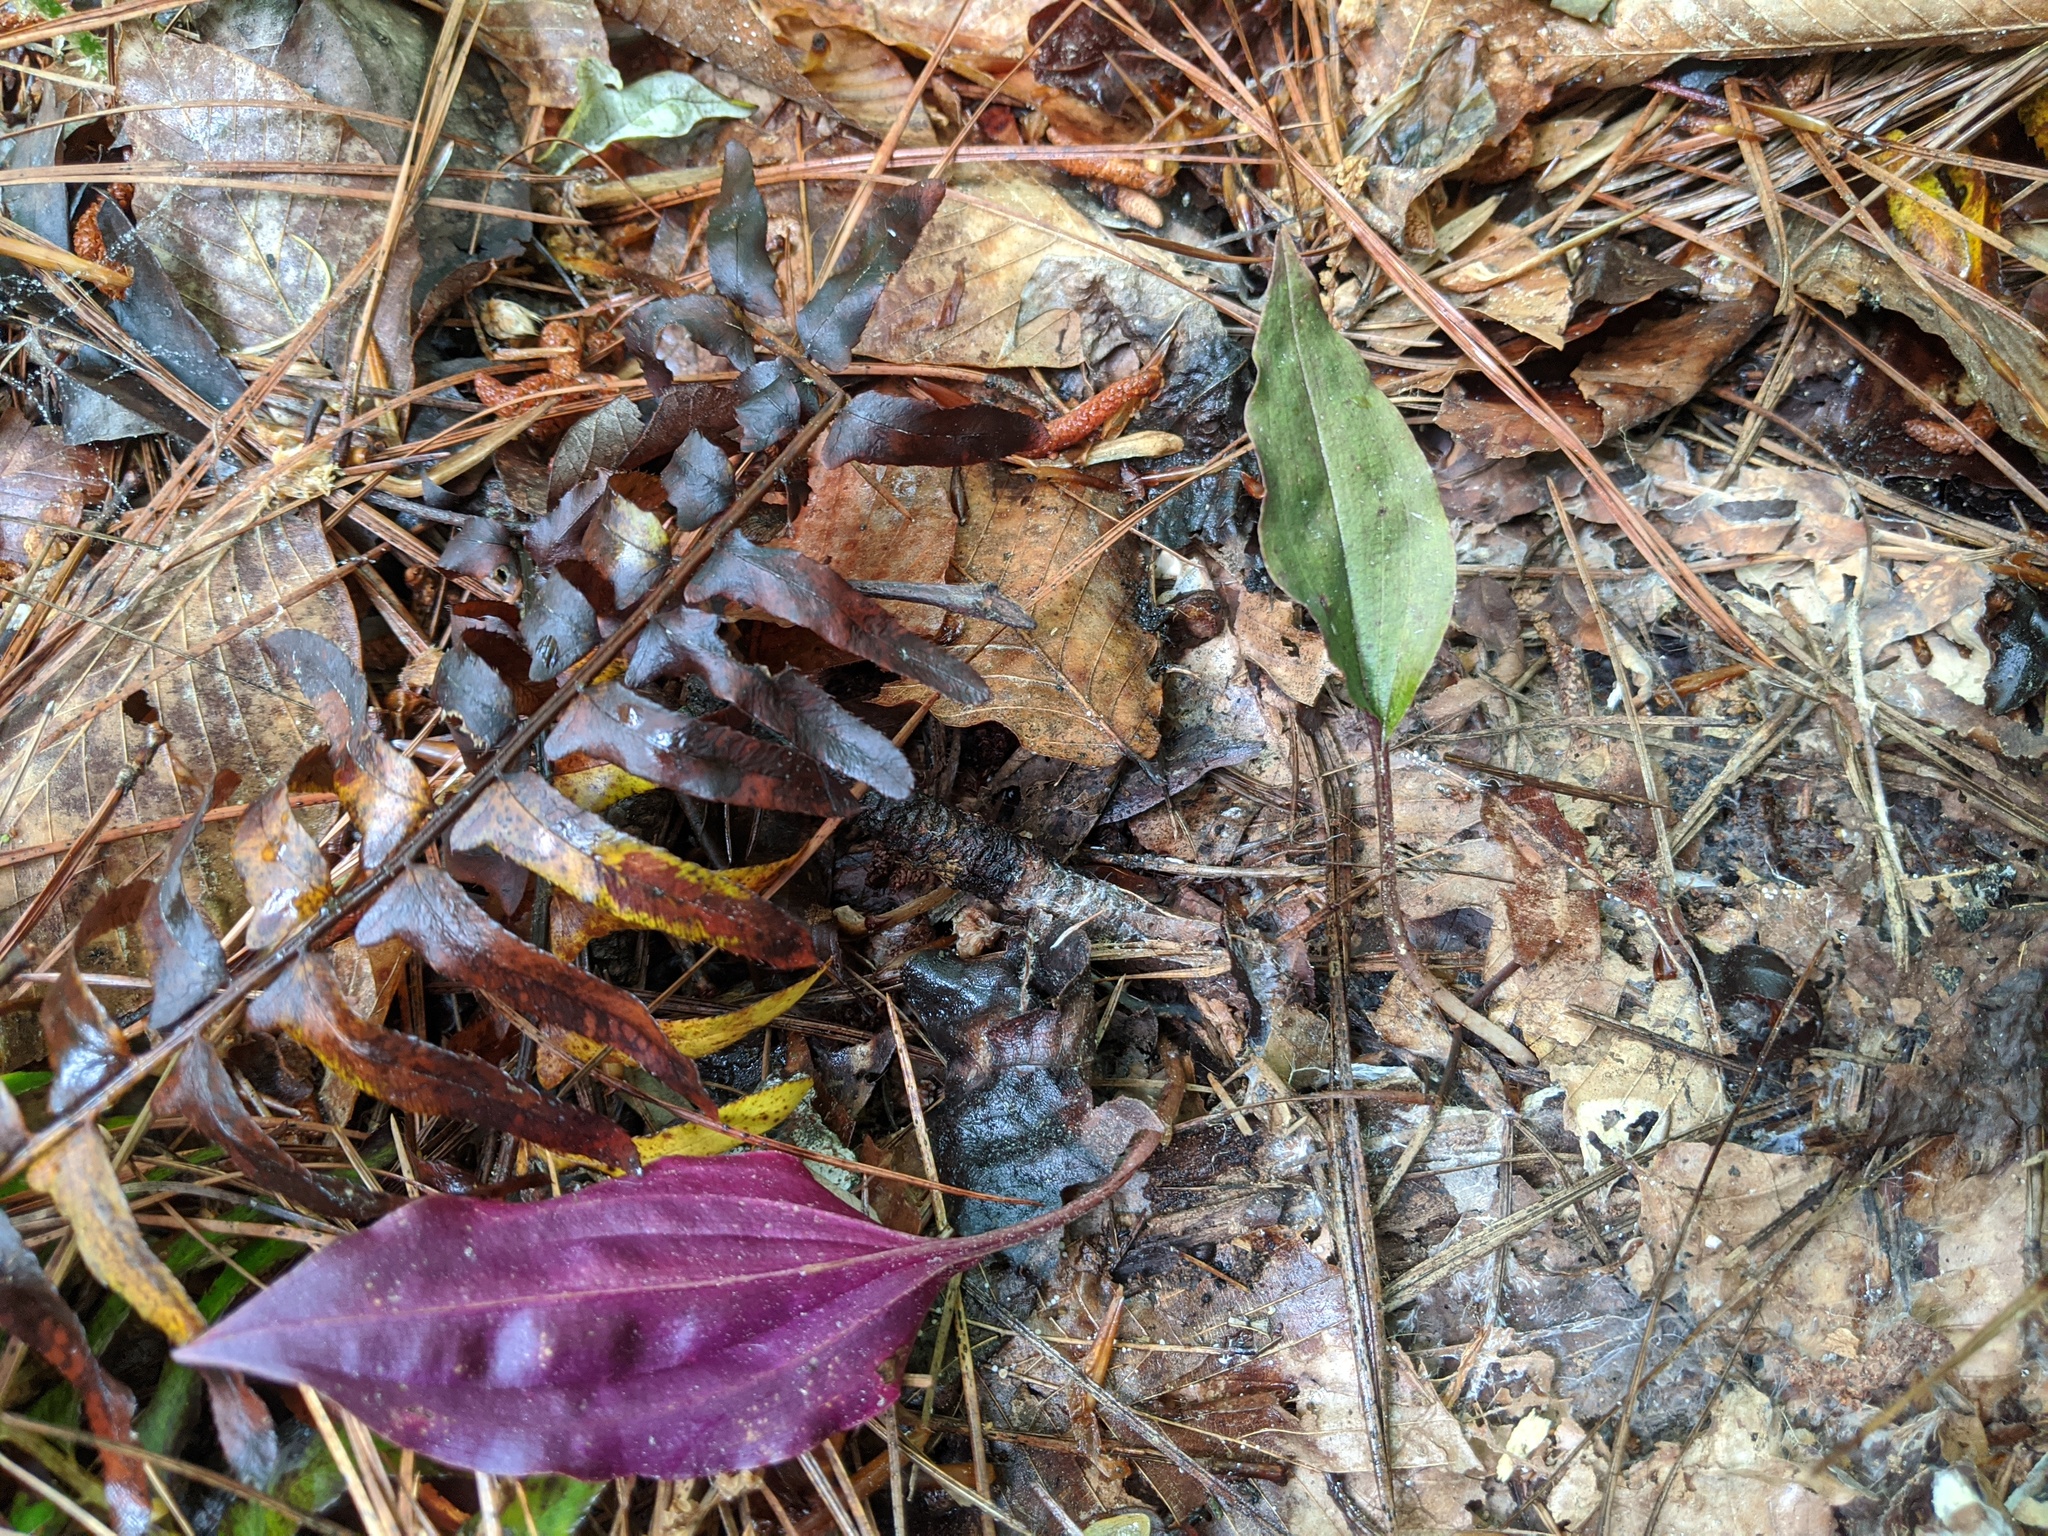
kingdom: Plantae
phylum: Tracheophyta
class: Liliopsida
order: Asparagales
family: Orchidaceae
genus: Tipularia
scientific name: Tipularia discolor
